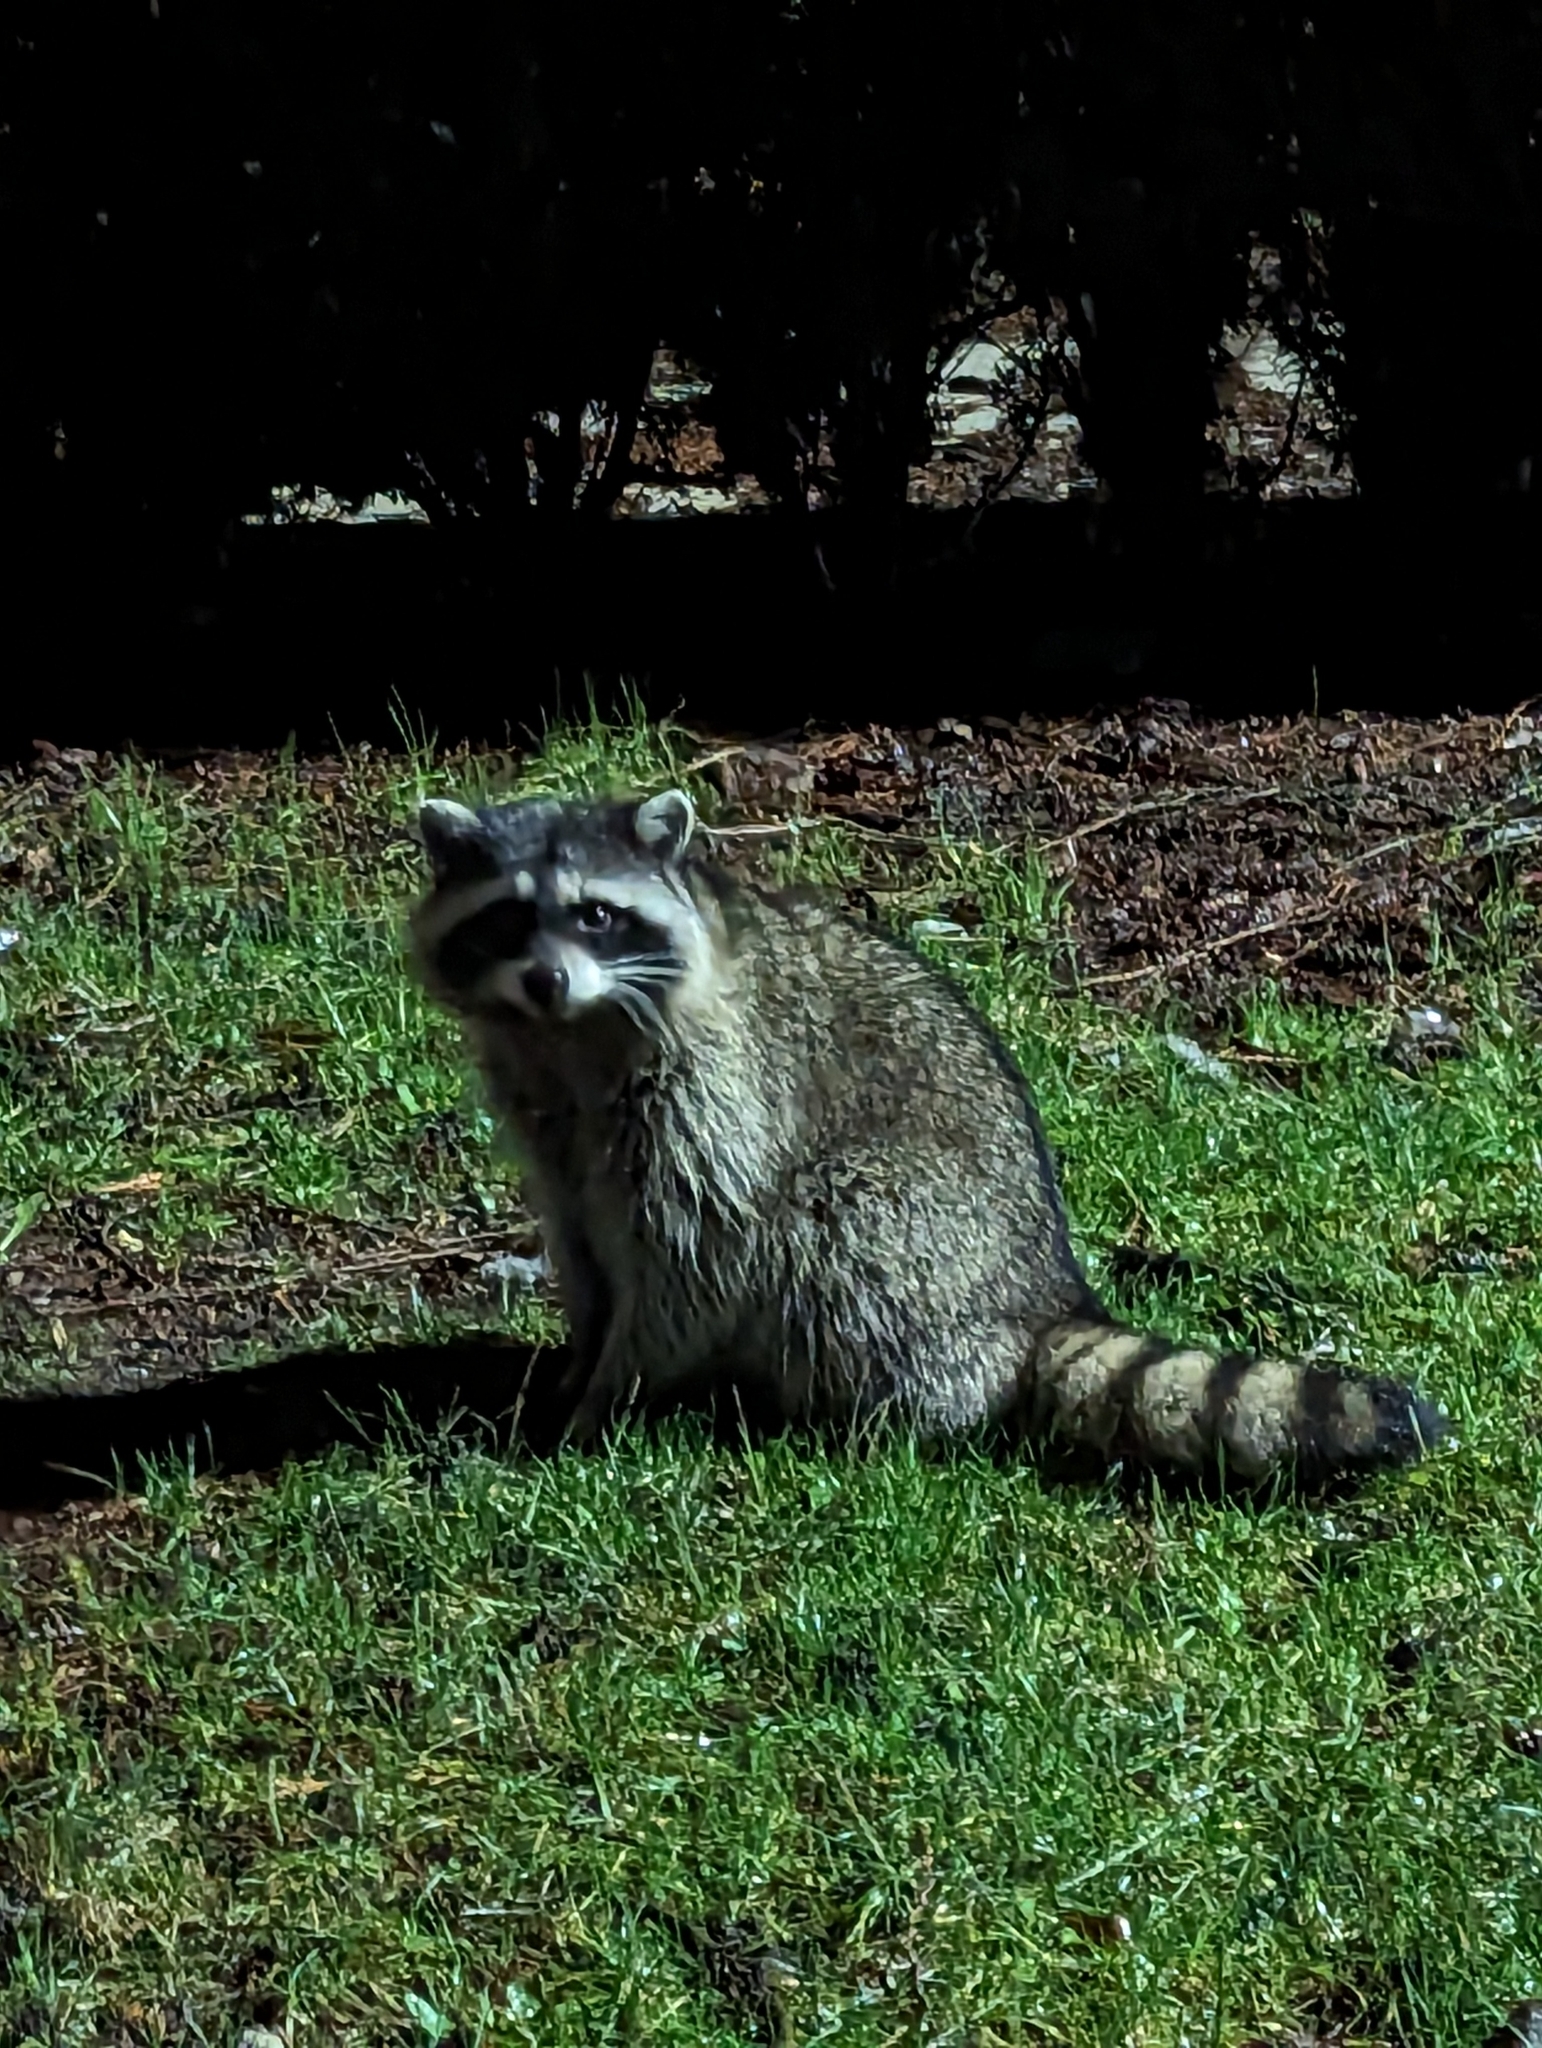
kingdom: Animalia
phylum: Chordata
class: Mammalia
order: Carnivora
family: Procyonidae
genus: Procyon
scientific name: Procyon lotor
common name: Raccoon
